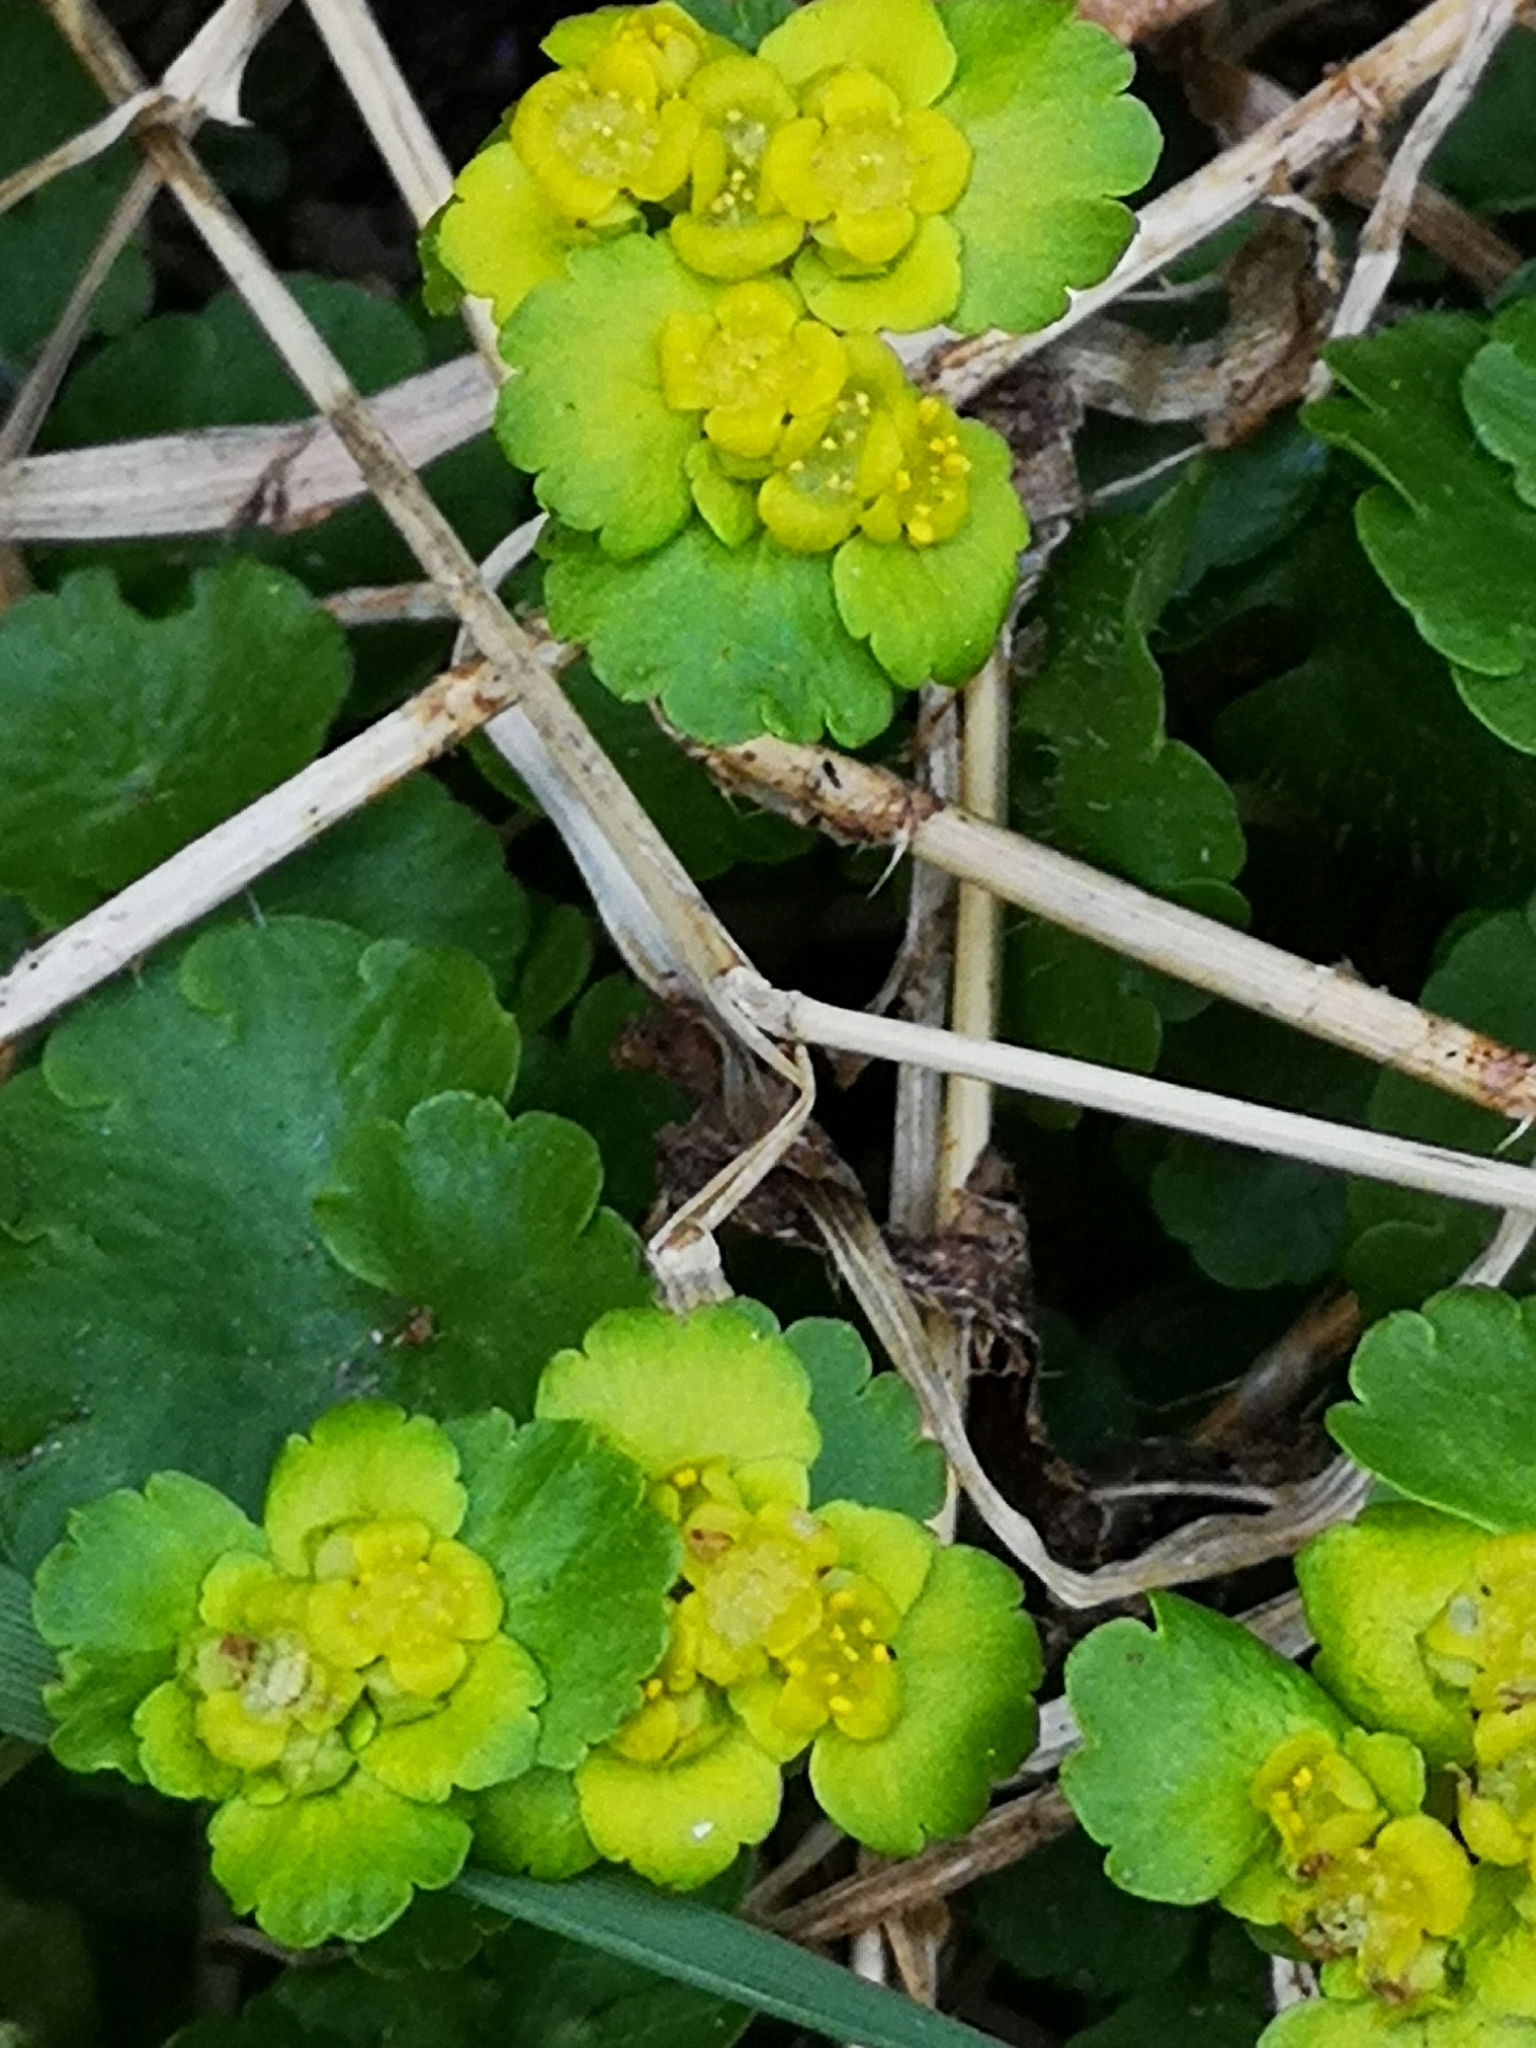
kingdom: Plantae
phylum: Tracheophyta
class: Magnoliopsida
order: Saxifragales
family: Saxifragaceae
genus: Chrysosplenium
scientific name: Chrysosplenium alternifolium
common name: Alternate-leaved golden-saxifrage
